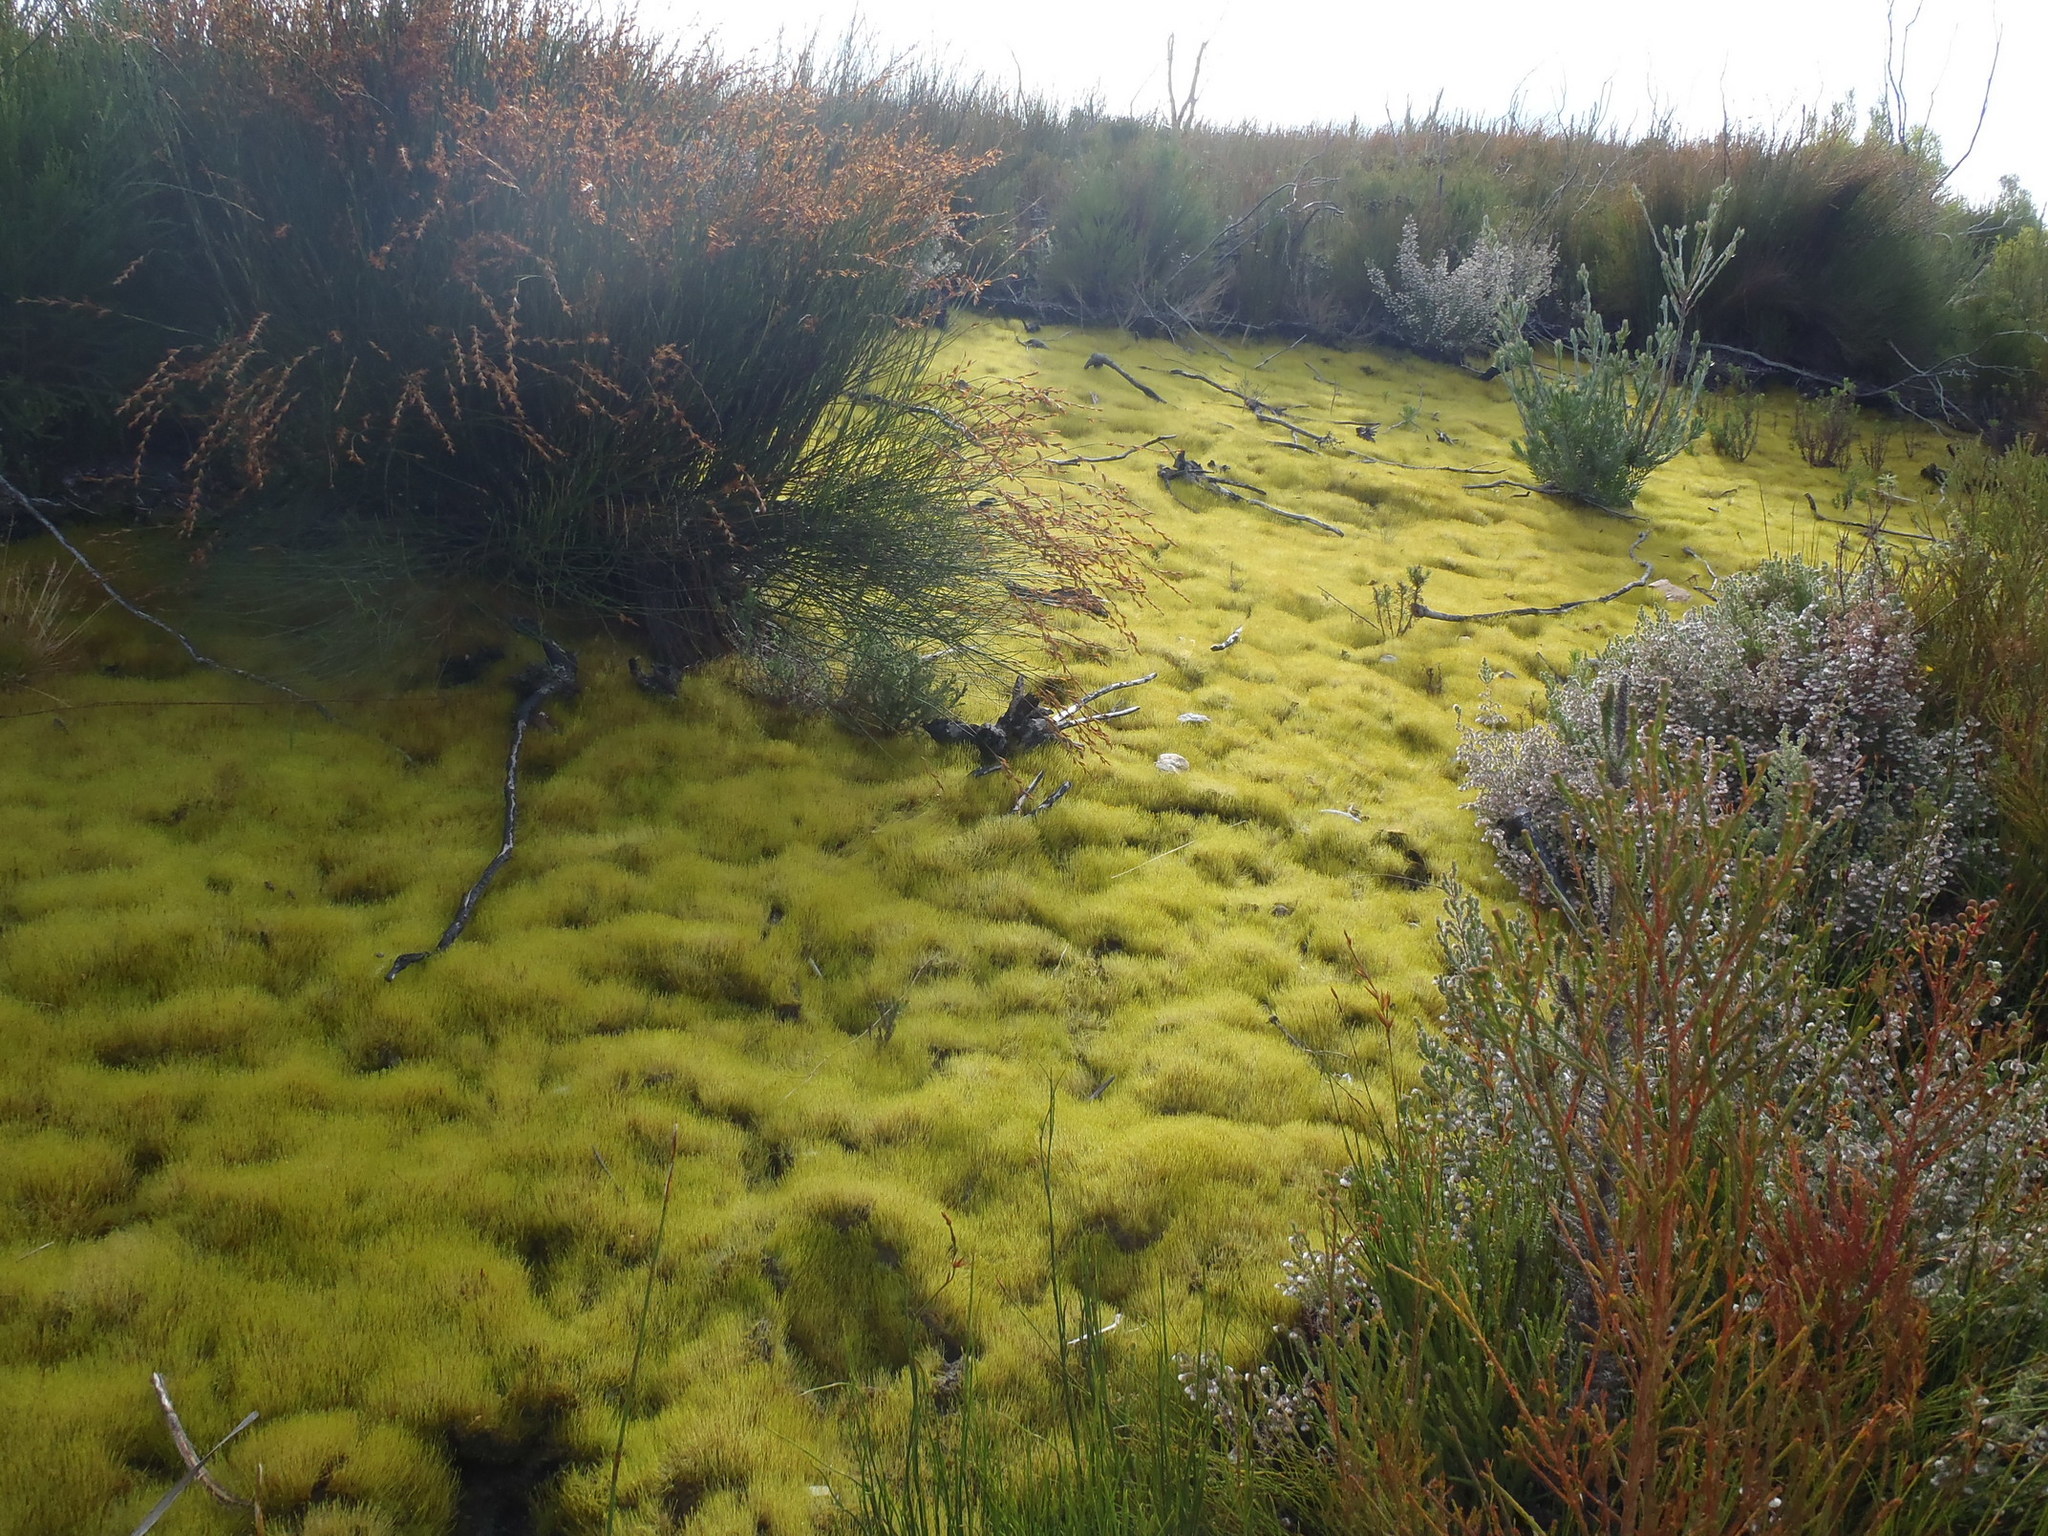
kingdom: Plantae
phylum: Bryophyta
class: Bryopsida
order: Dicranales
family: Ditrichaceae
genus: Ceratodon
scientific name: Ceratodon purpureus
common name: Redshank
